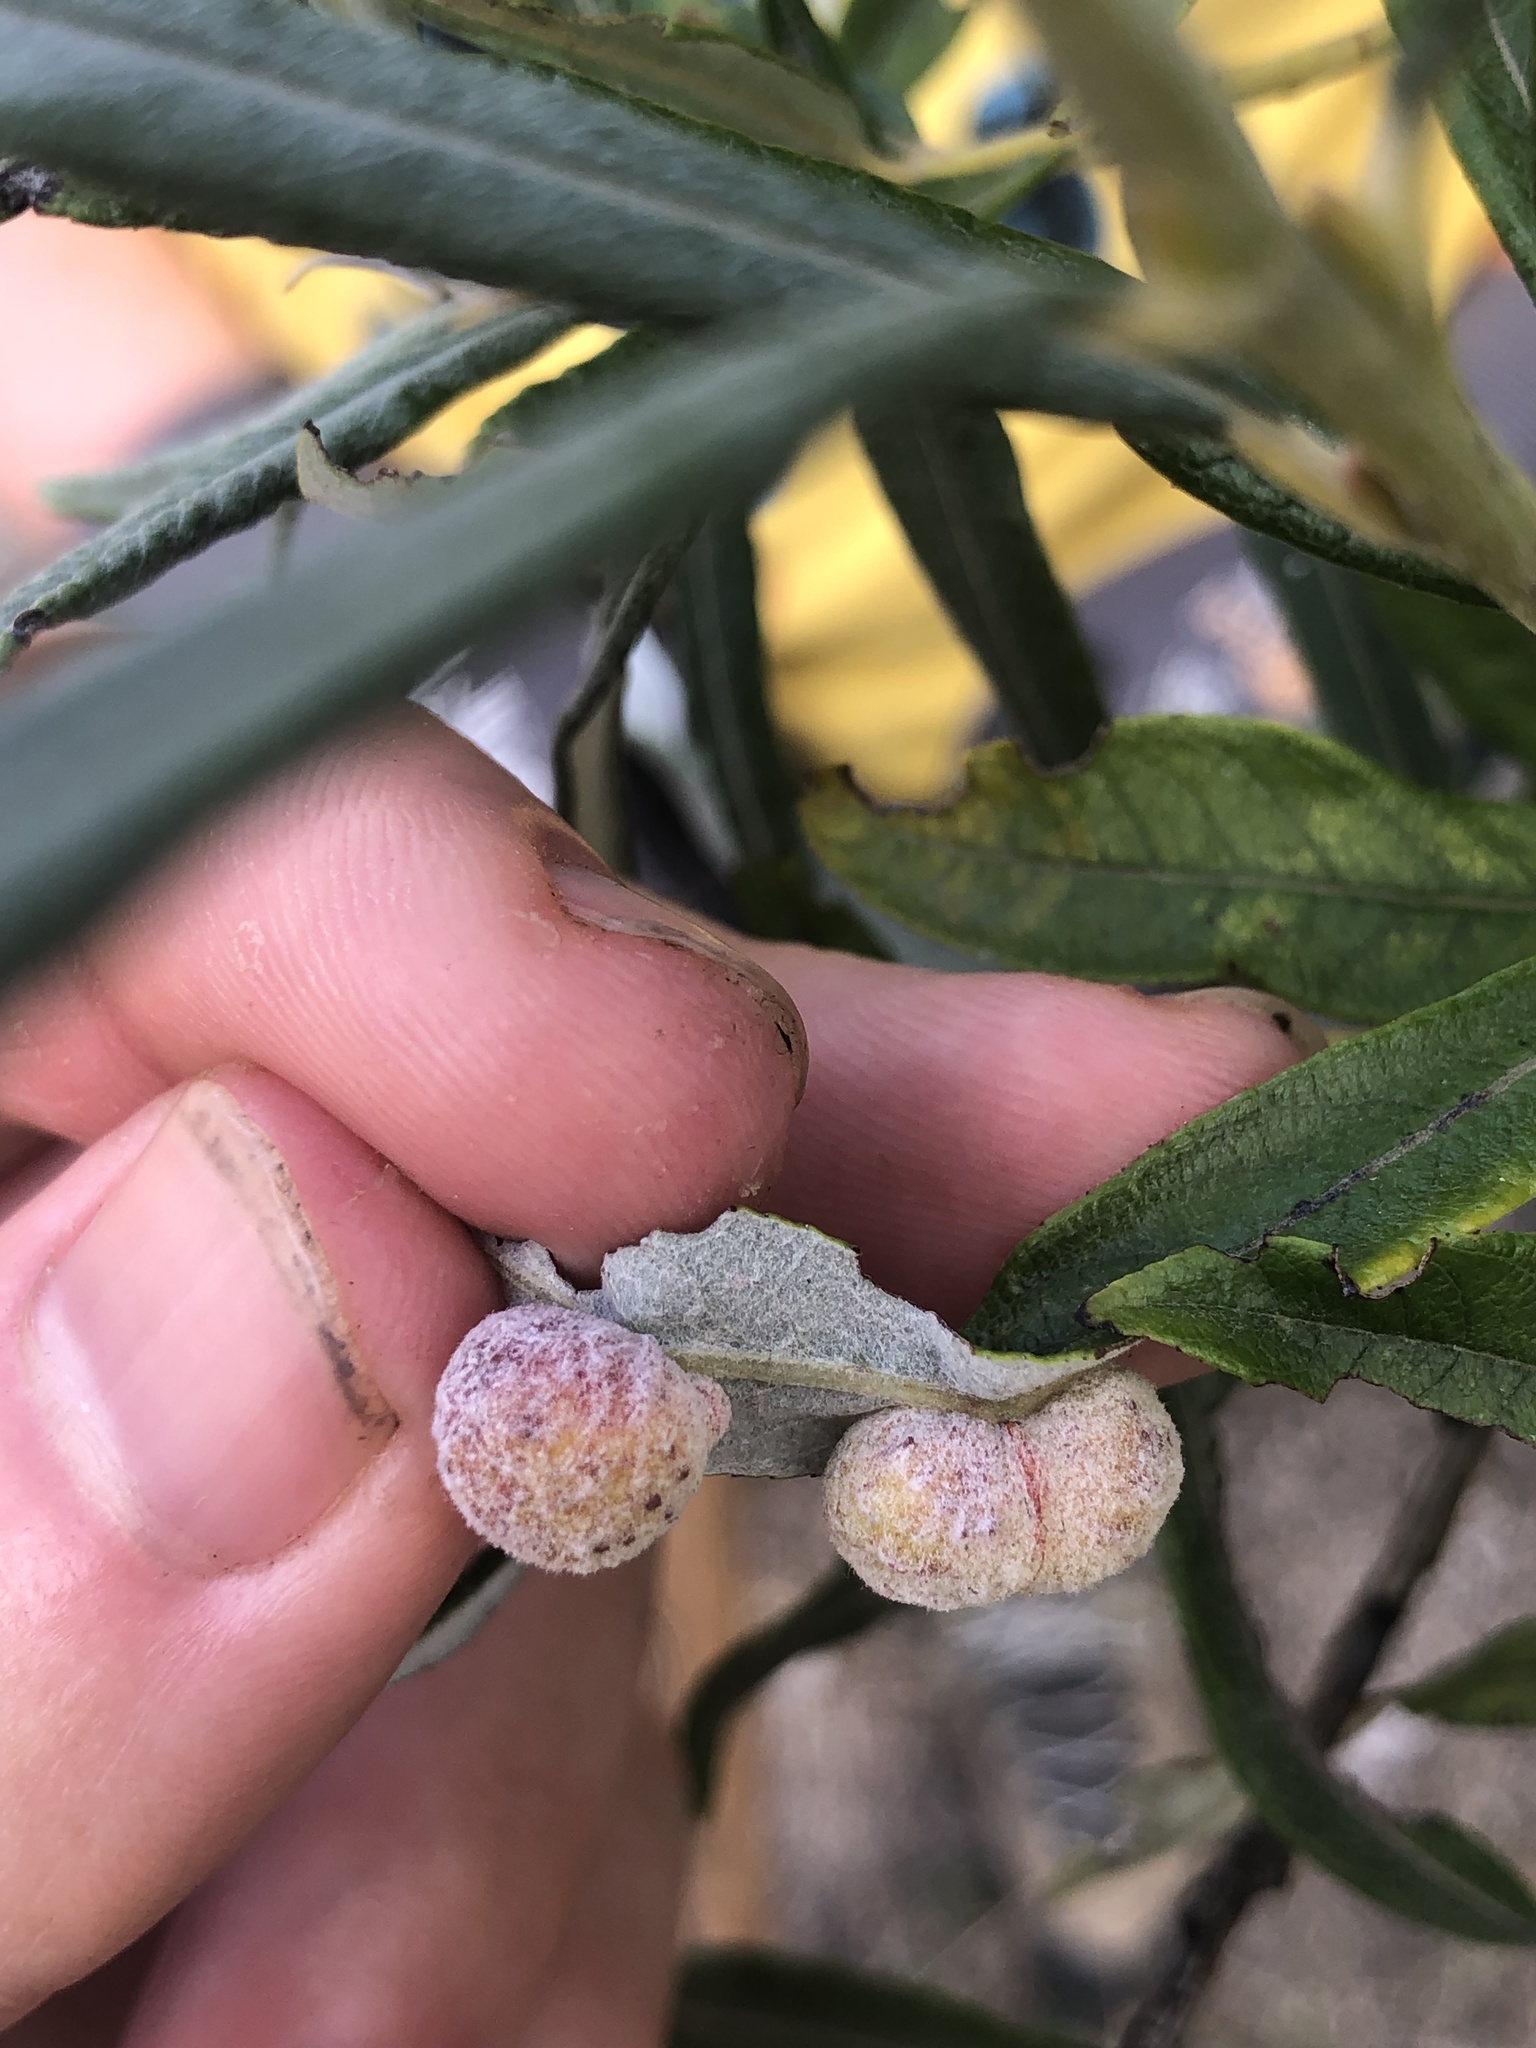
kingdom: Animalia
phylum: Arthropoda
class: Insecta
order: Hymenoptera
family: Tenthredinidae
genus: Euura
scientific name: Euura kriechbaumeri
